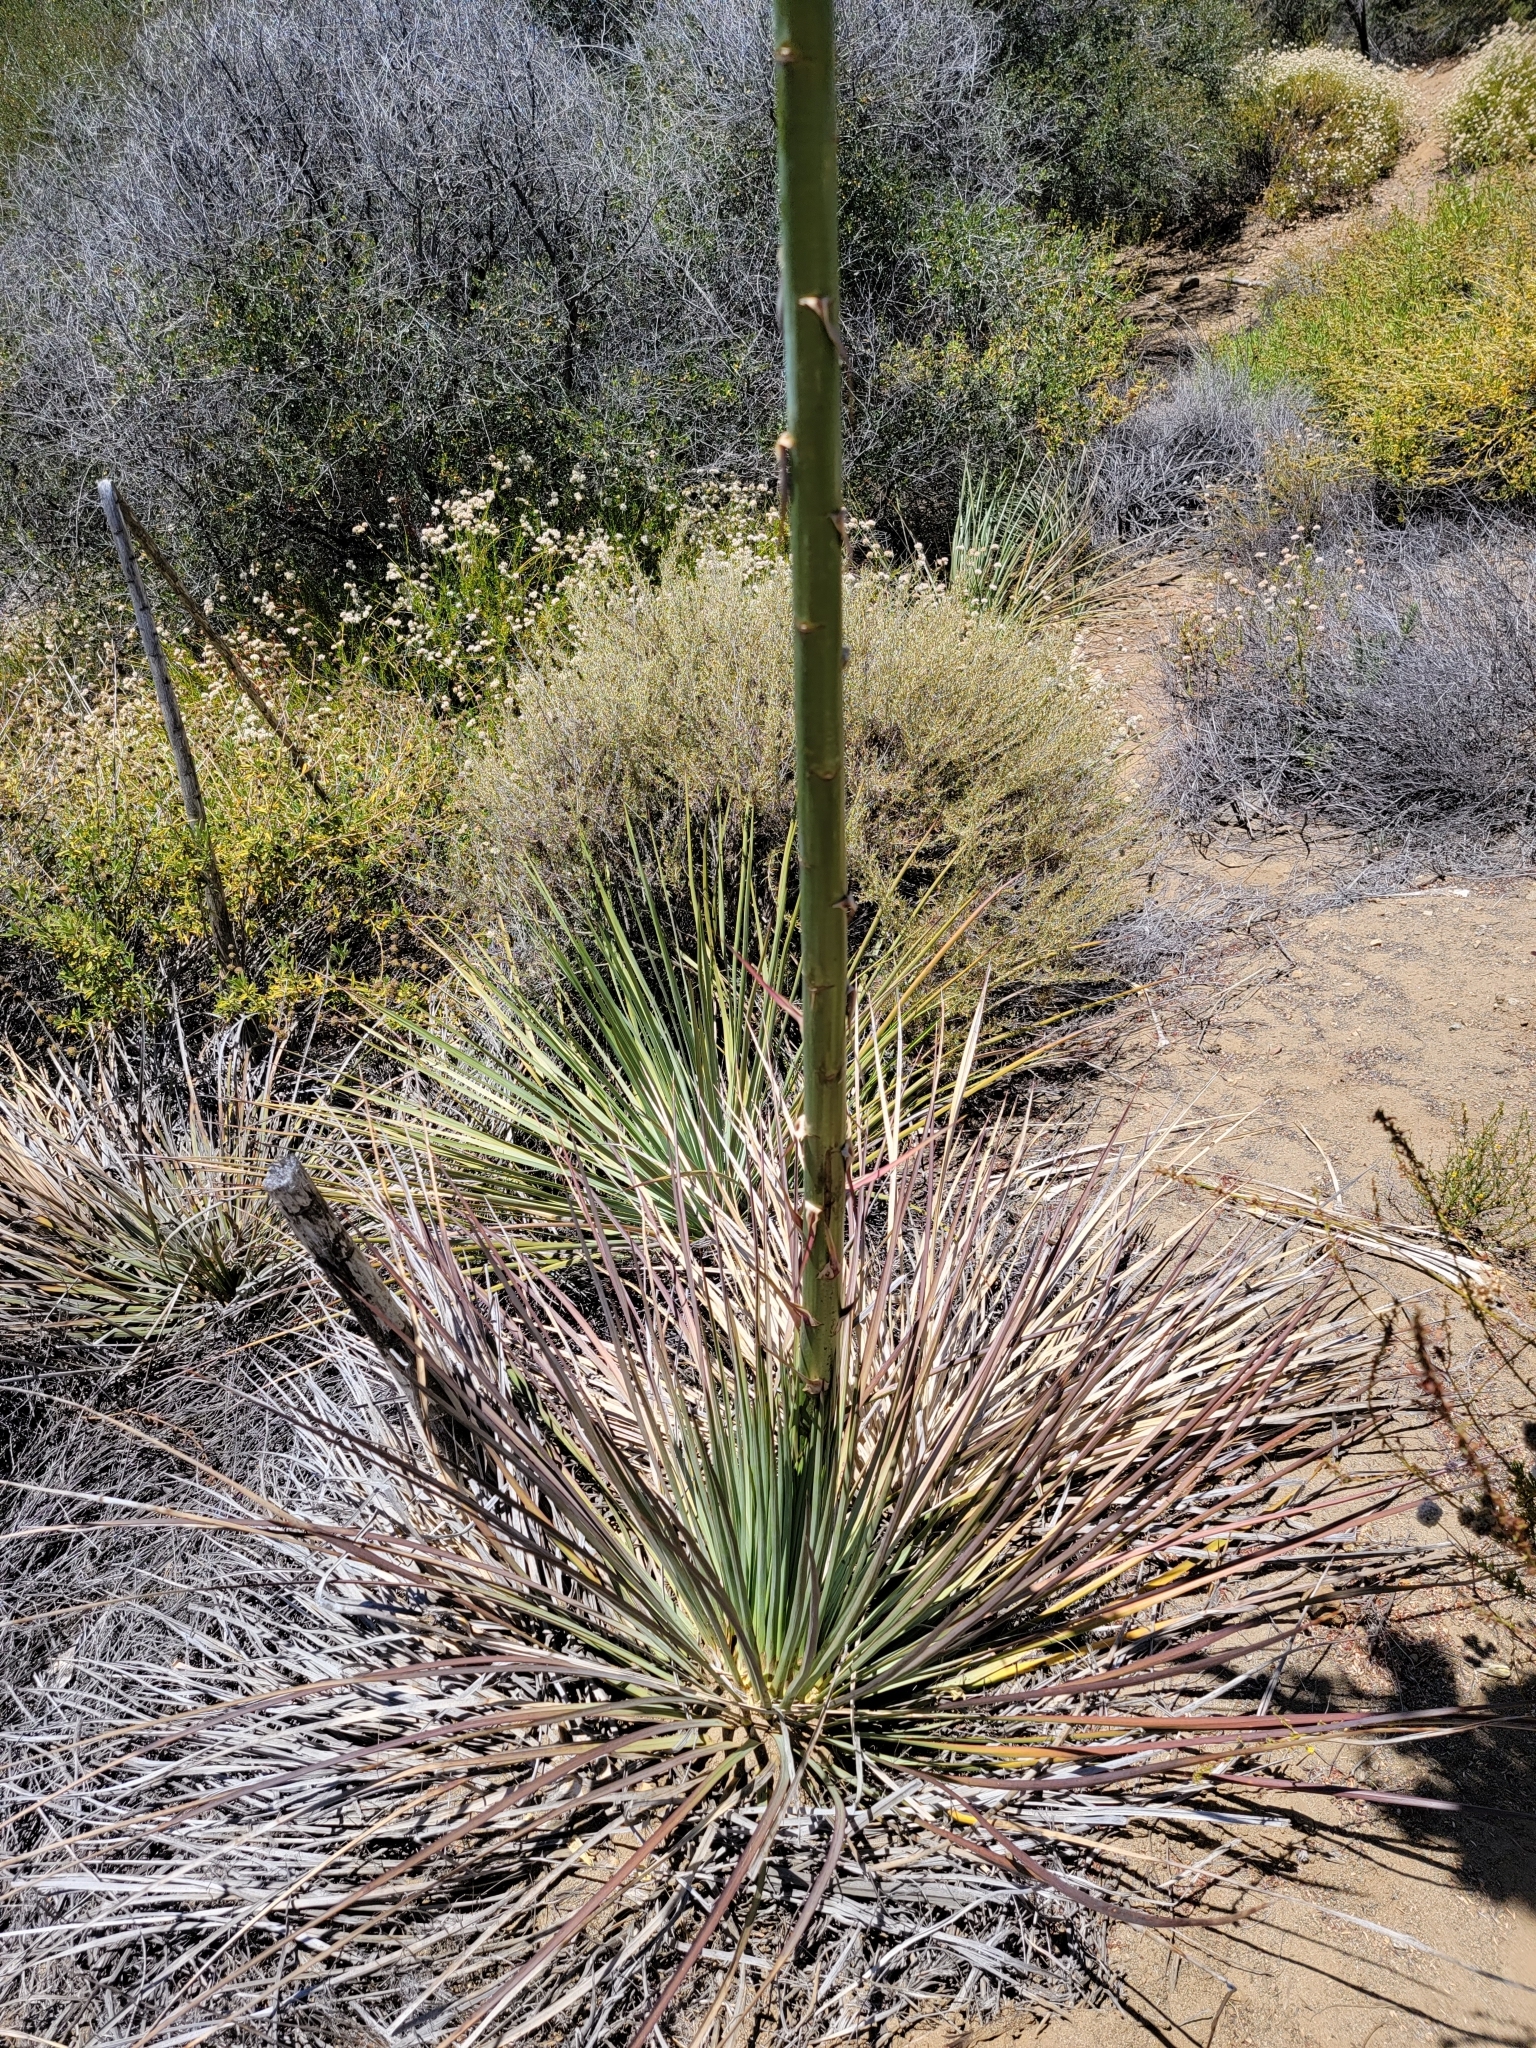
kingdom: Plantae
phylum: Tracheophyta
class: Liliopsida
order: Asparagales
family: Asparagaceae
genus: Hesperoyucca
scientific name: Hesperoyucca whipplei
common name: Our lord's-candle
